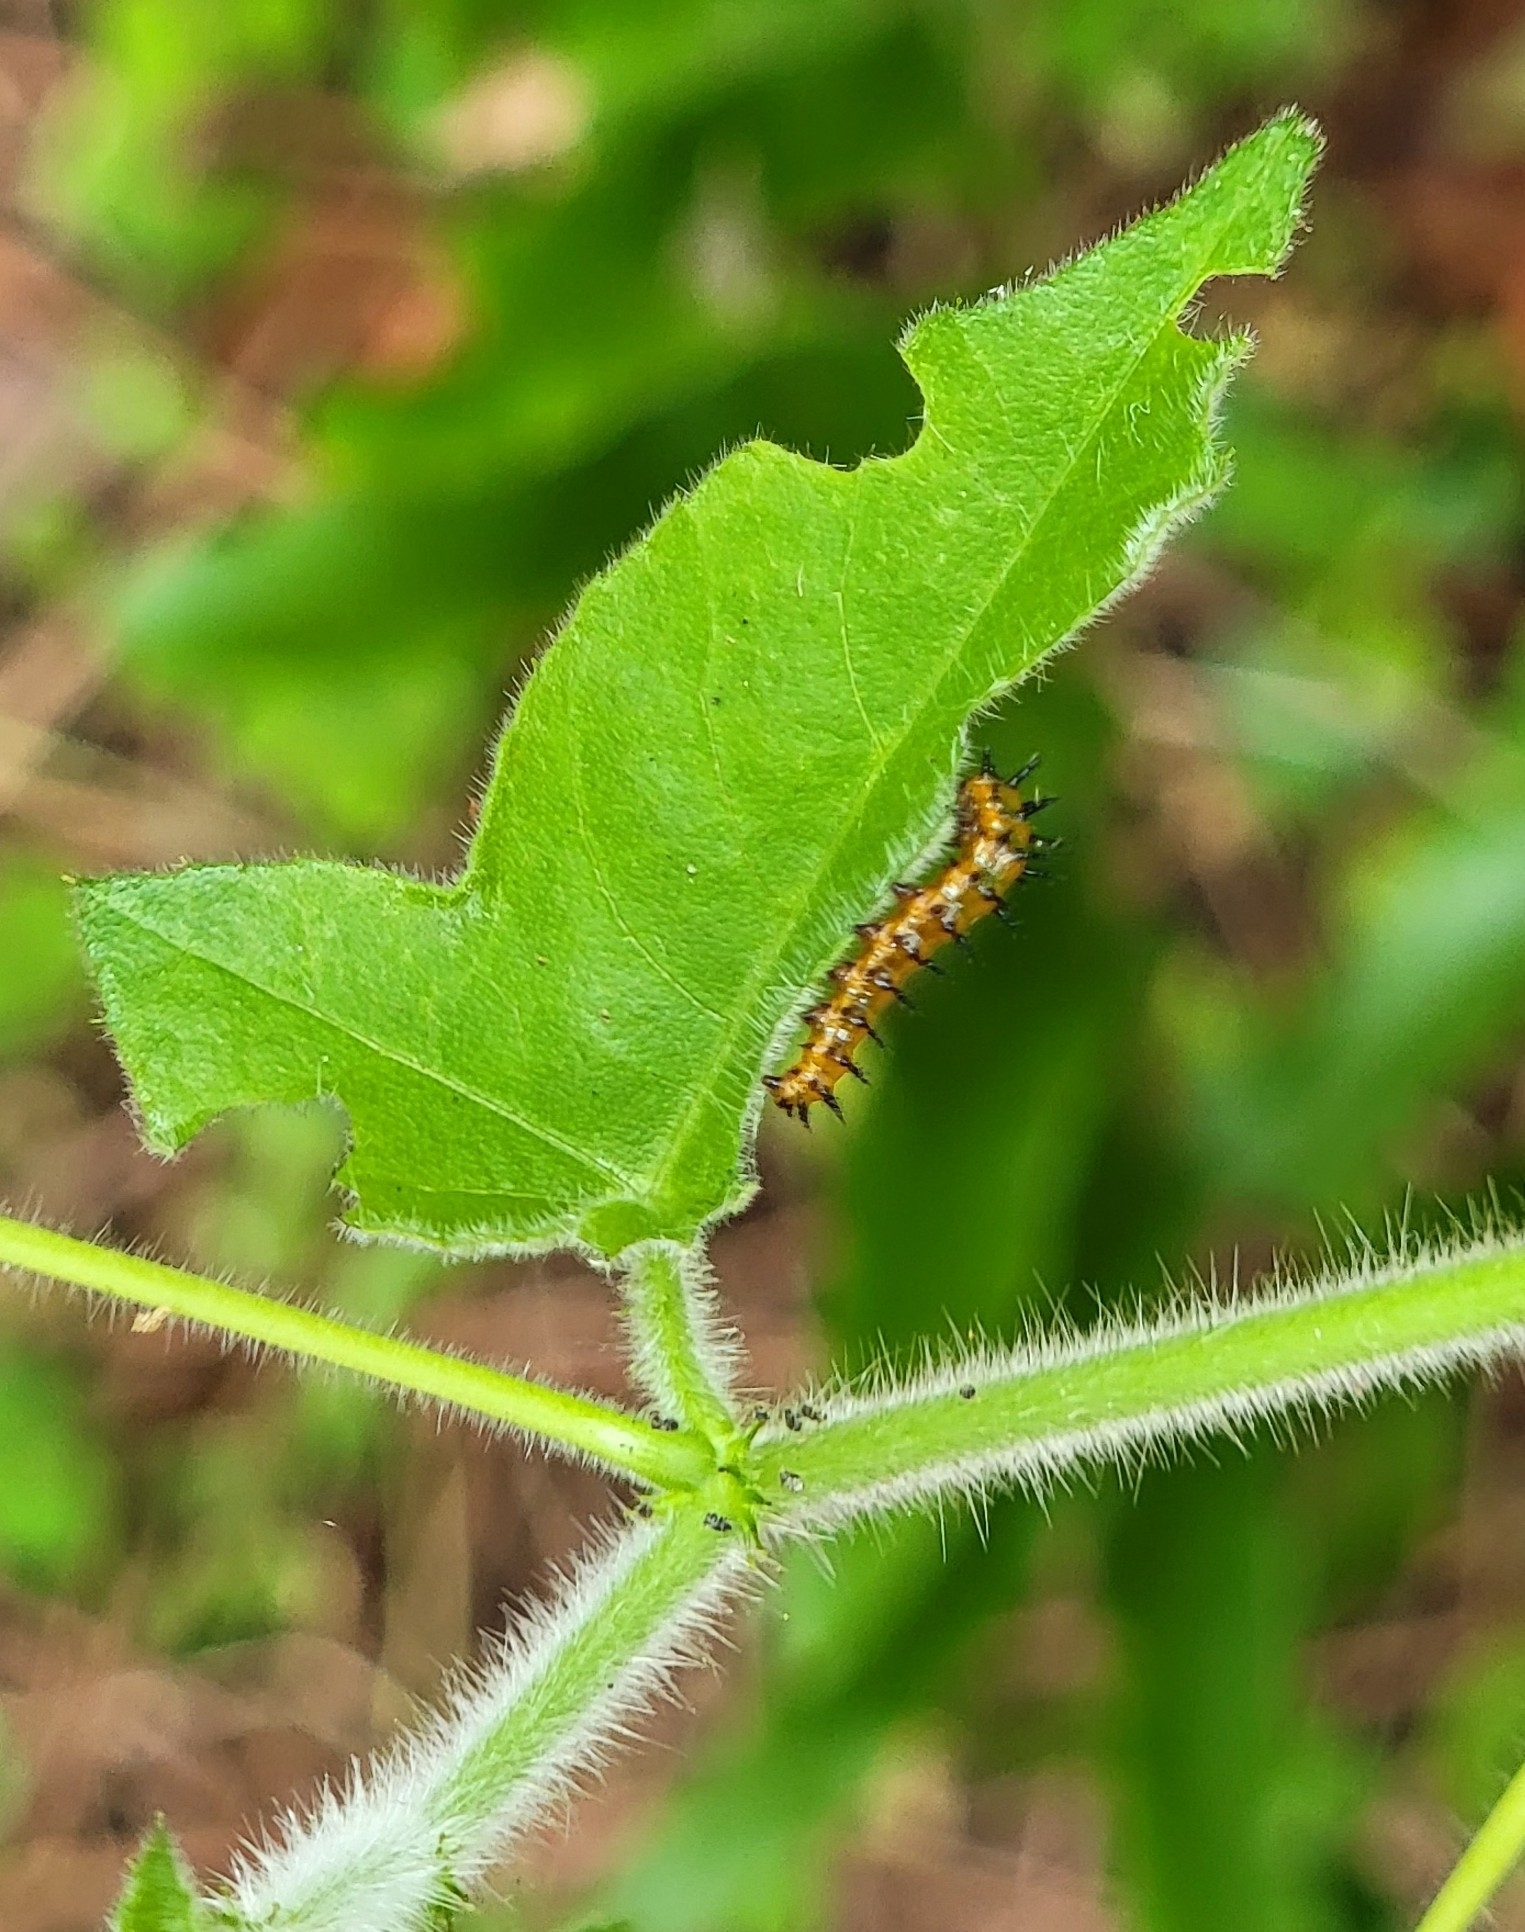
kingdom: Animalia
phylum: Arthropoda
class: Insecta
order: Lepidoptera
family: Nymphalidae
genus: Dione
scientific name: Dione vanillae
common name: Gulf fritillary
